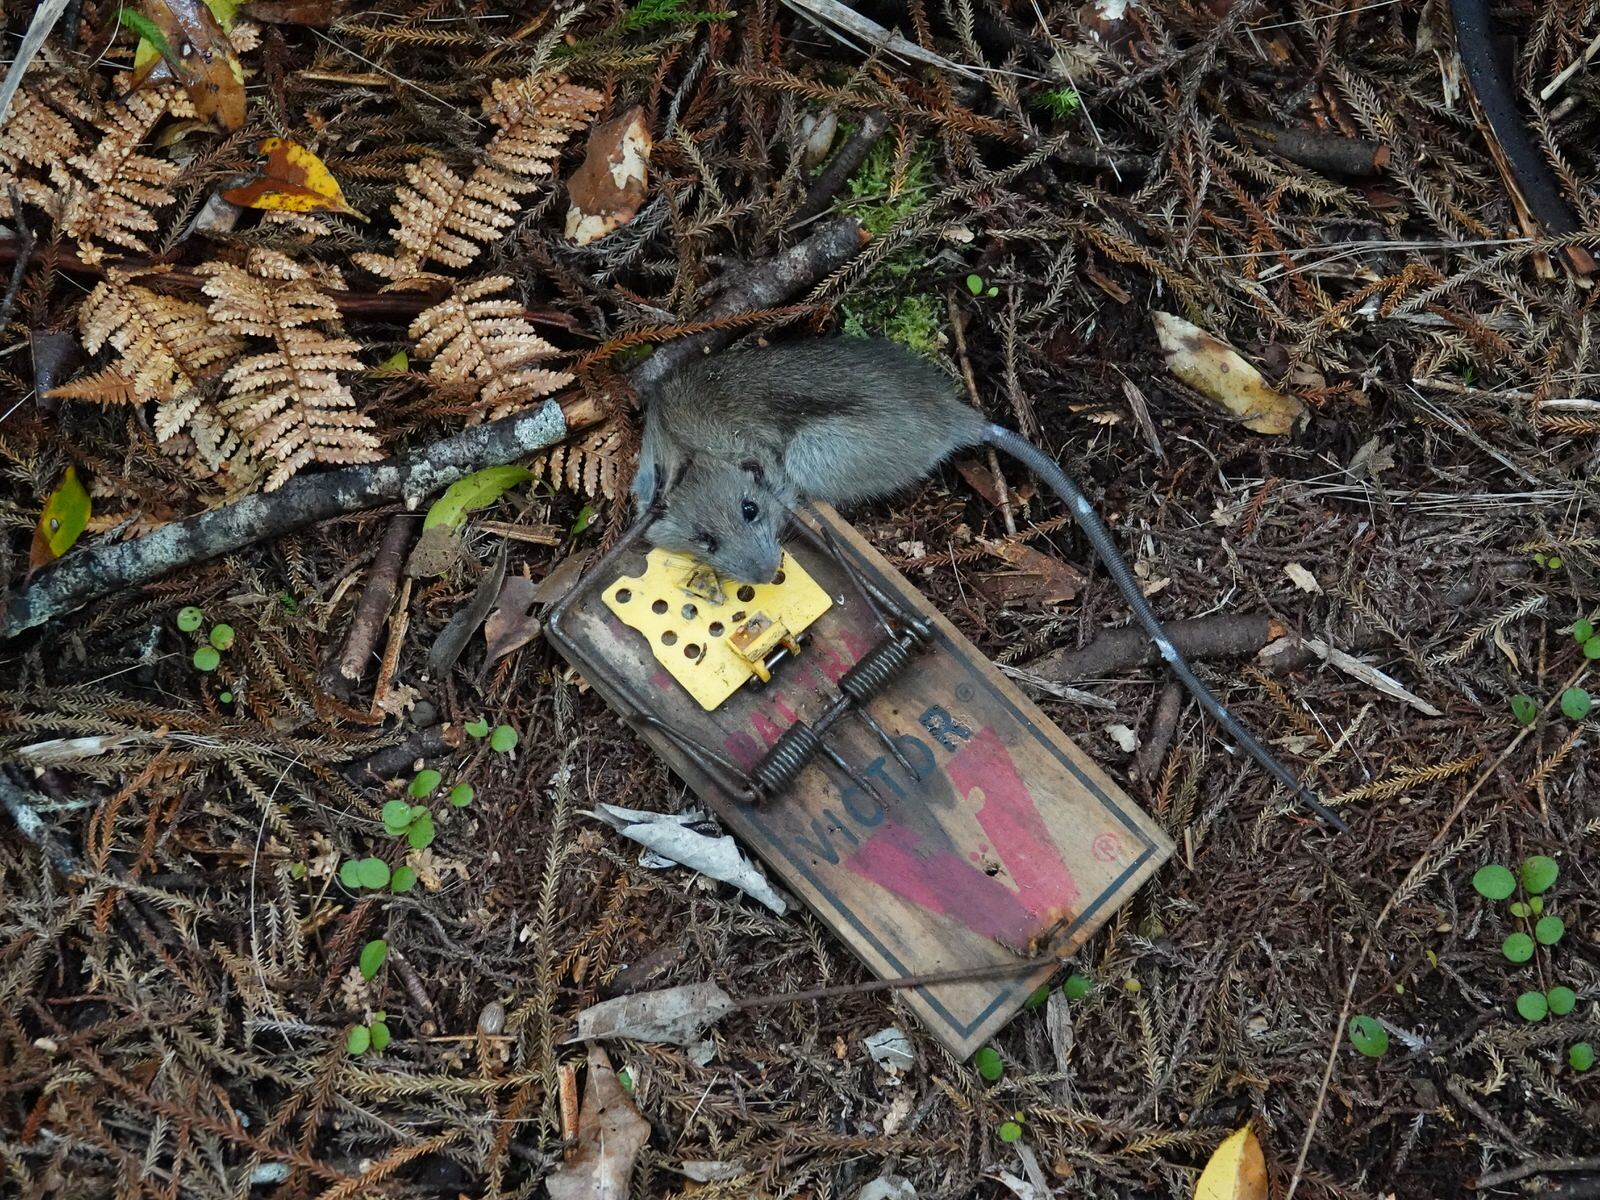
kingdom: Animalia
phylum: Chordata
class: Mammalia
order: Rodentia
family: Muridae
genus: Rattus
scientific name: Rattus rattus
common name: Black rat
